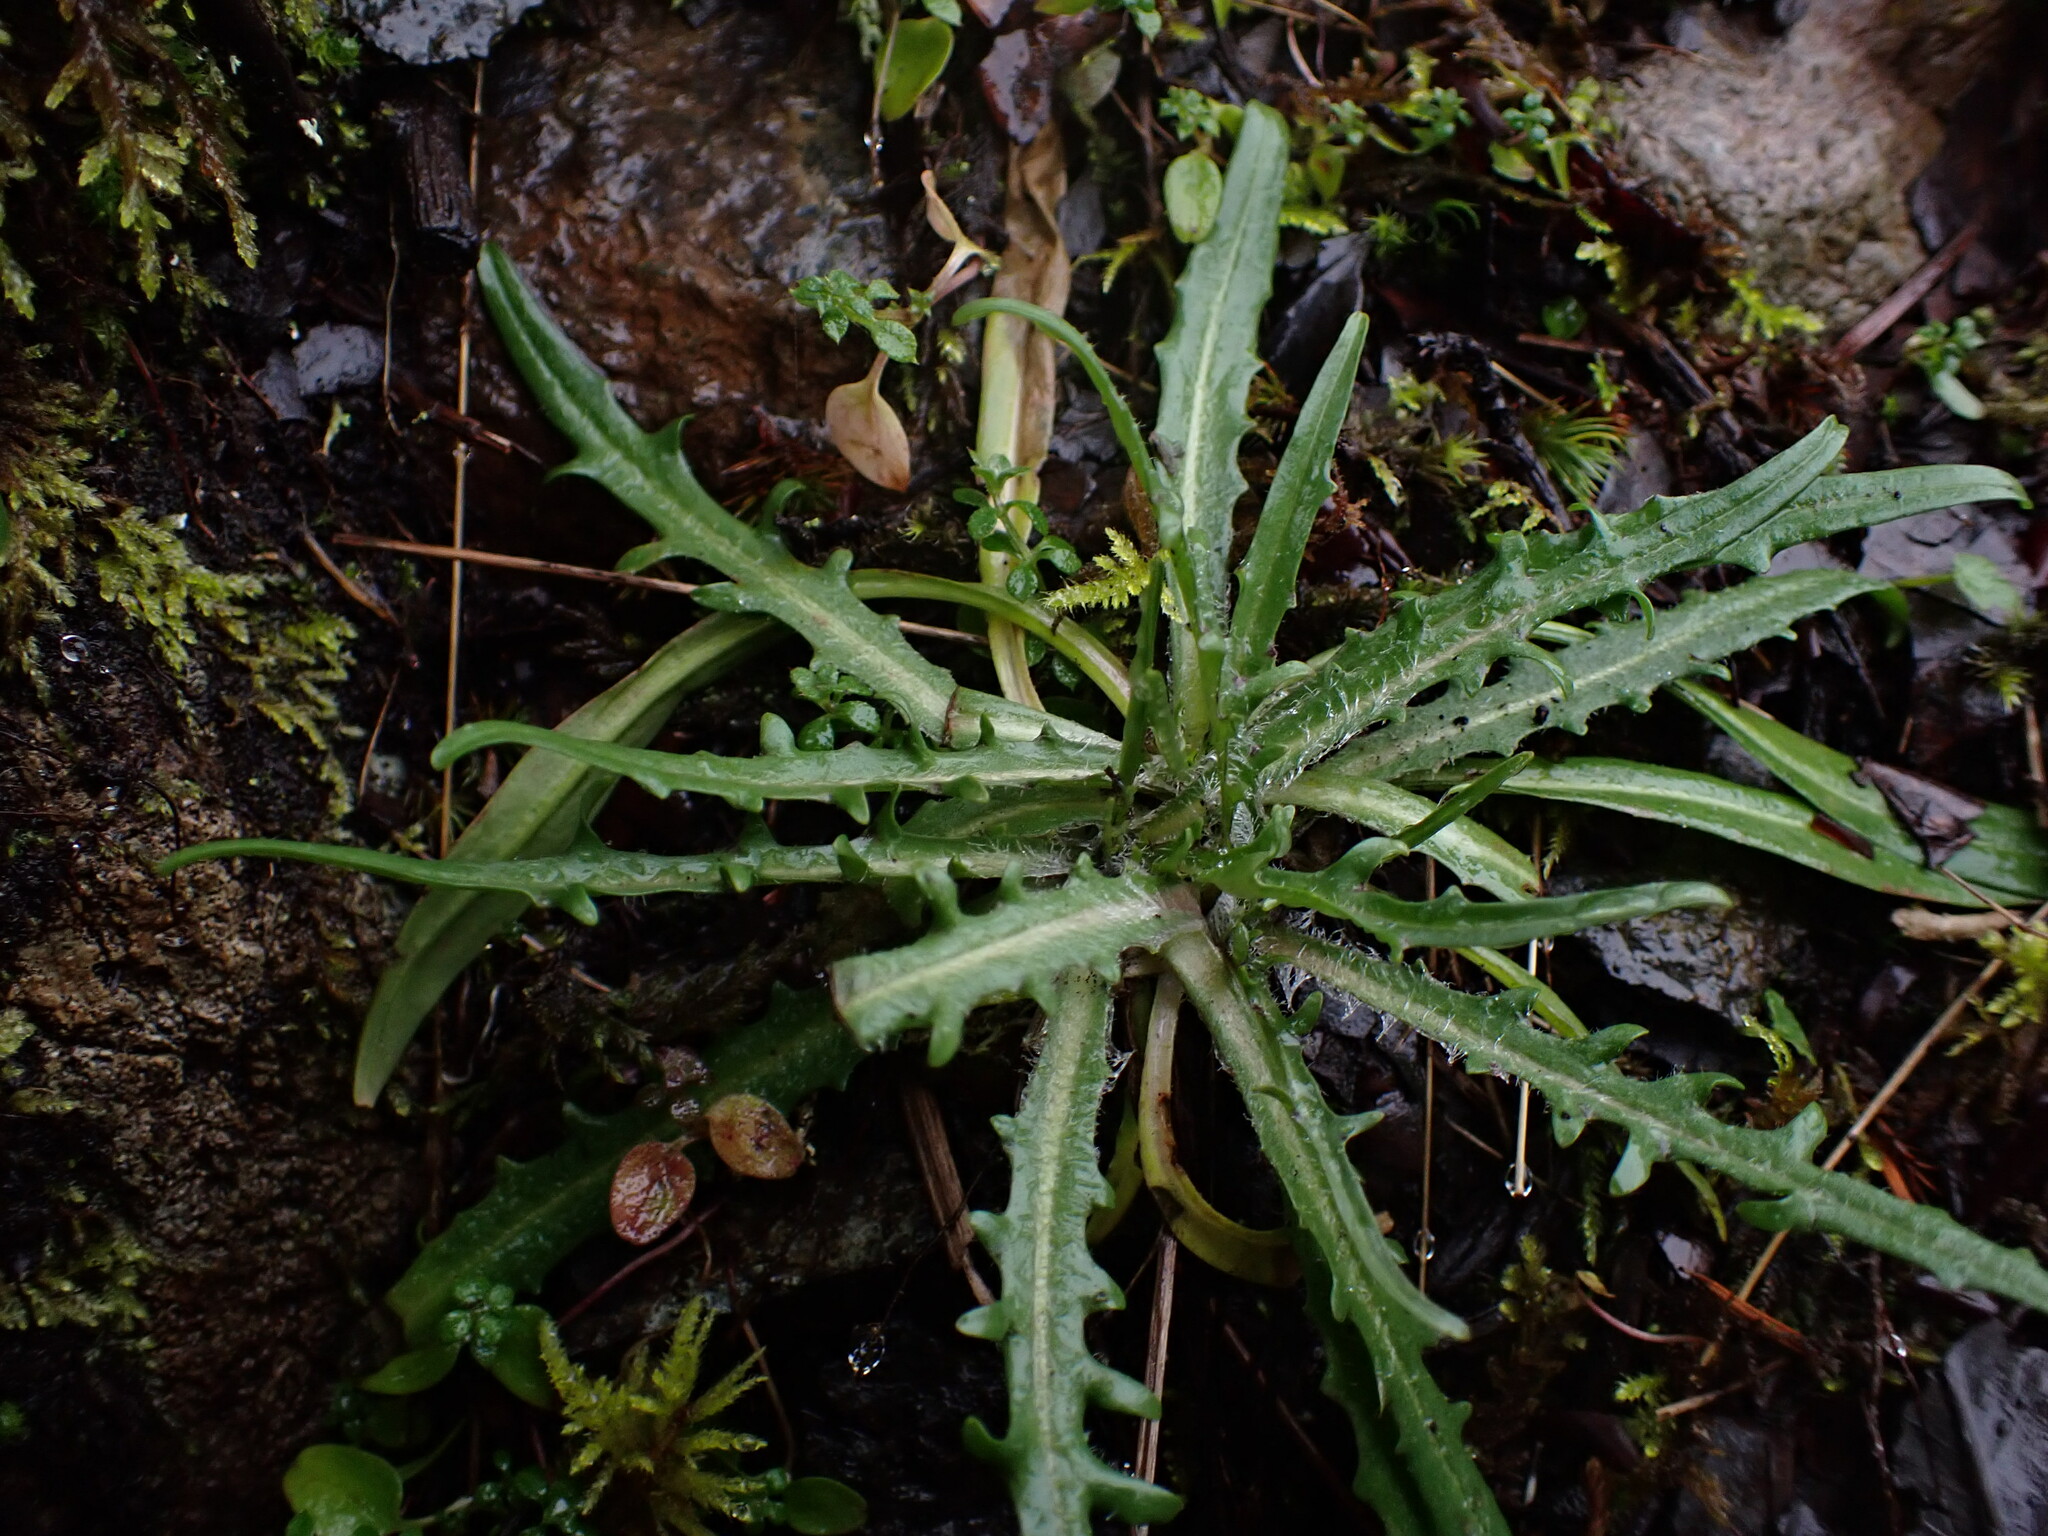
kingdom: Plantae
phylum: Tracheophyta
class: Magnoliopsida
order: Asterales
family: Asteraceae
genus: Agoseris
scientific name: Agoseris grandiflora
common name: Grassland agoseris
